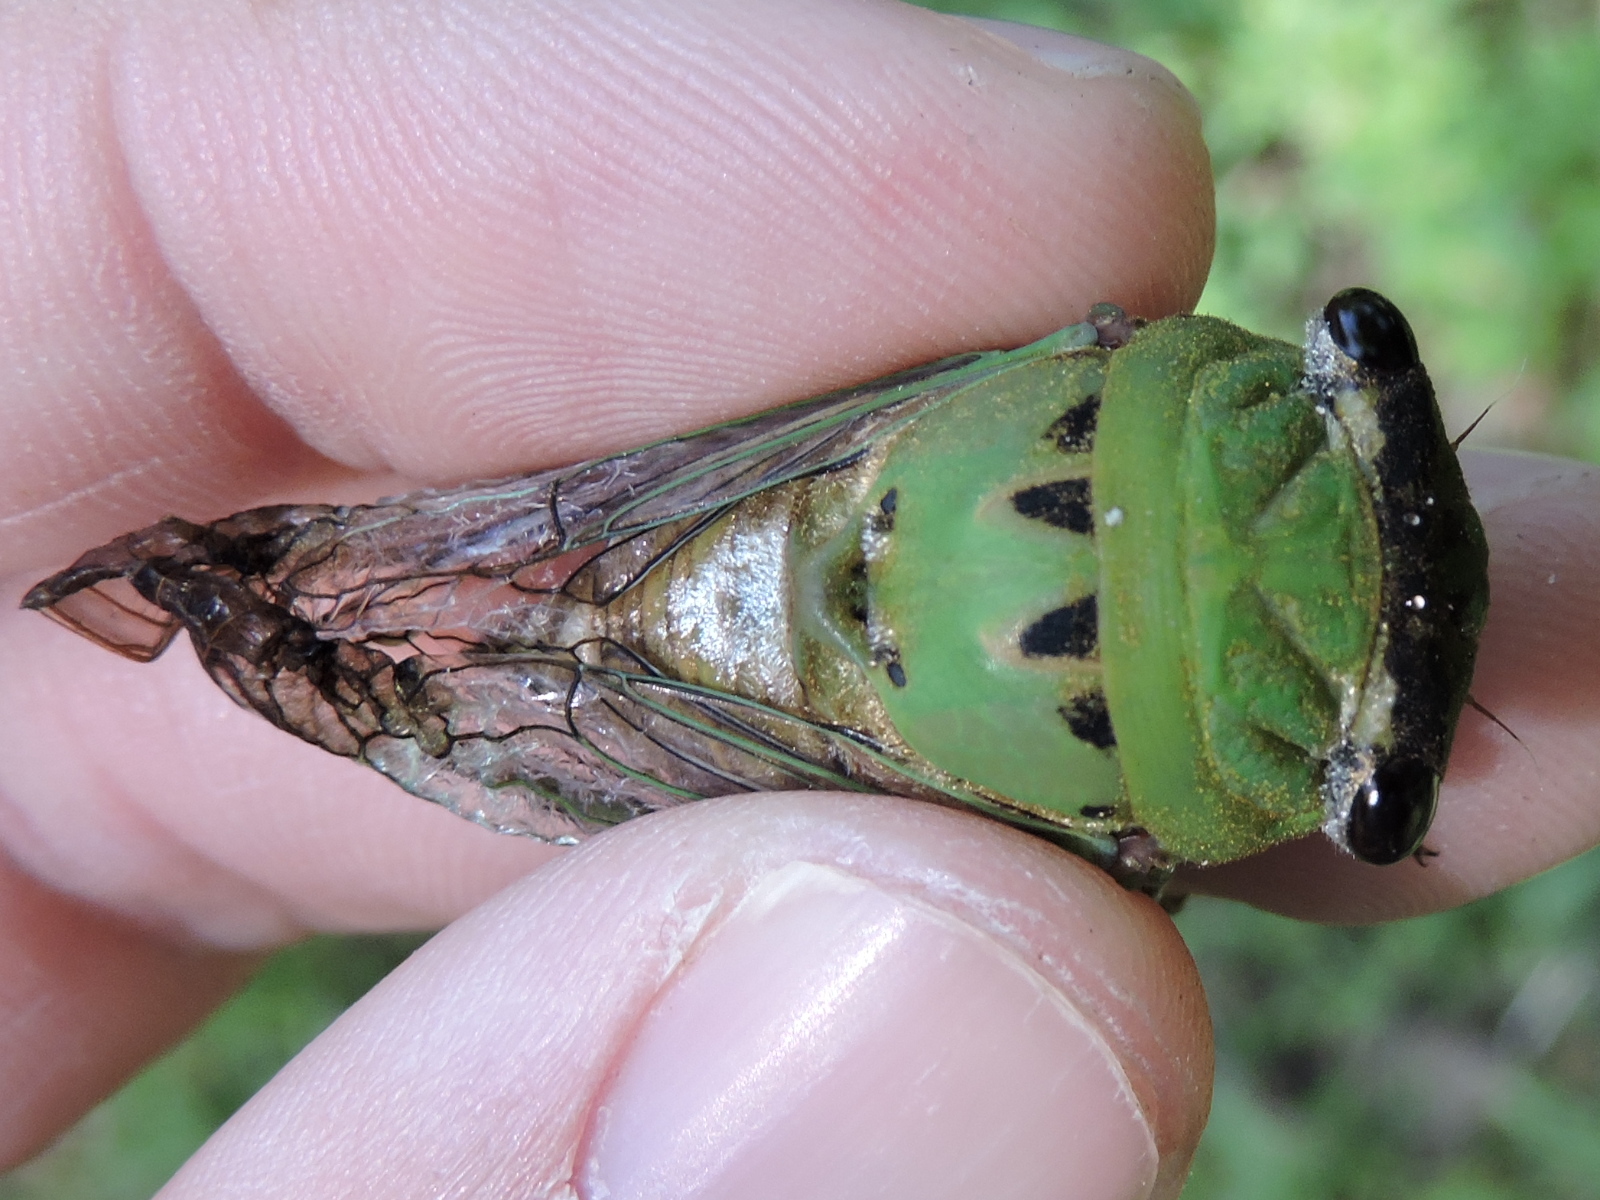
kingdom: Animalia
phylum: Arthropoda
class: Insecta
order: Hemiptera
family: Cicadidae
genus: Neotibicen
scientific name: Neotibicen superbus
